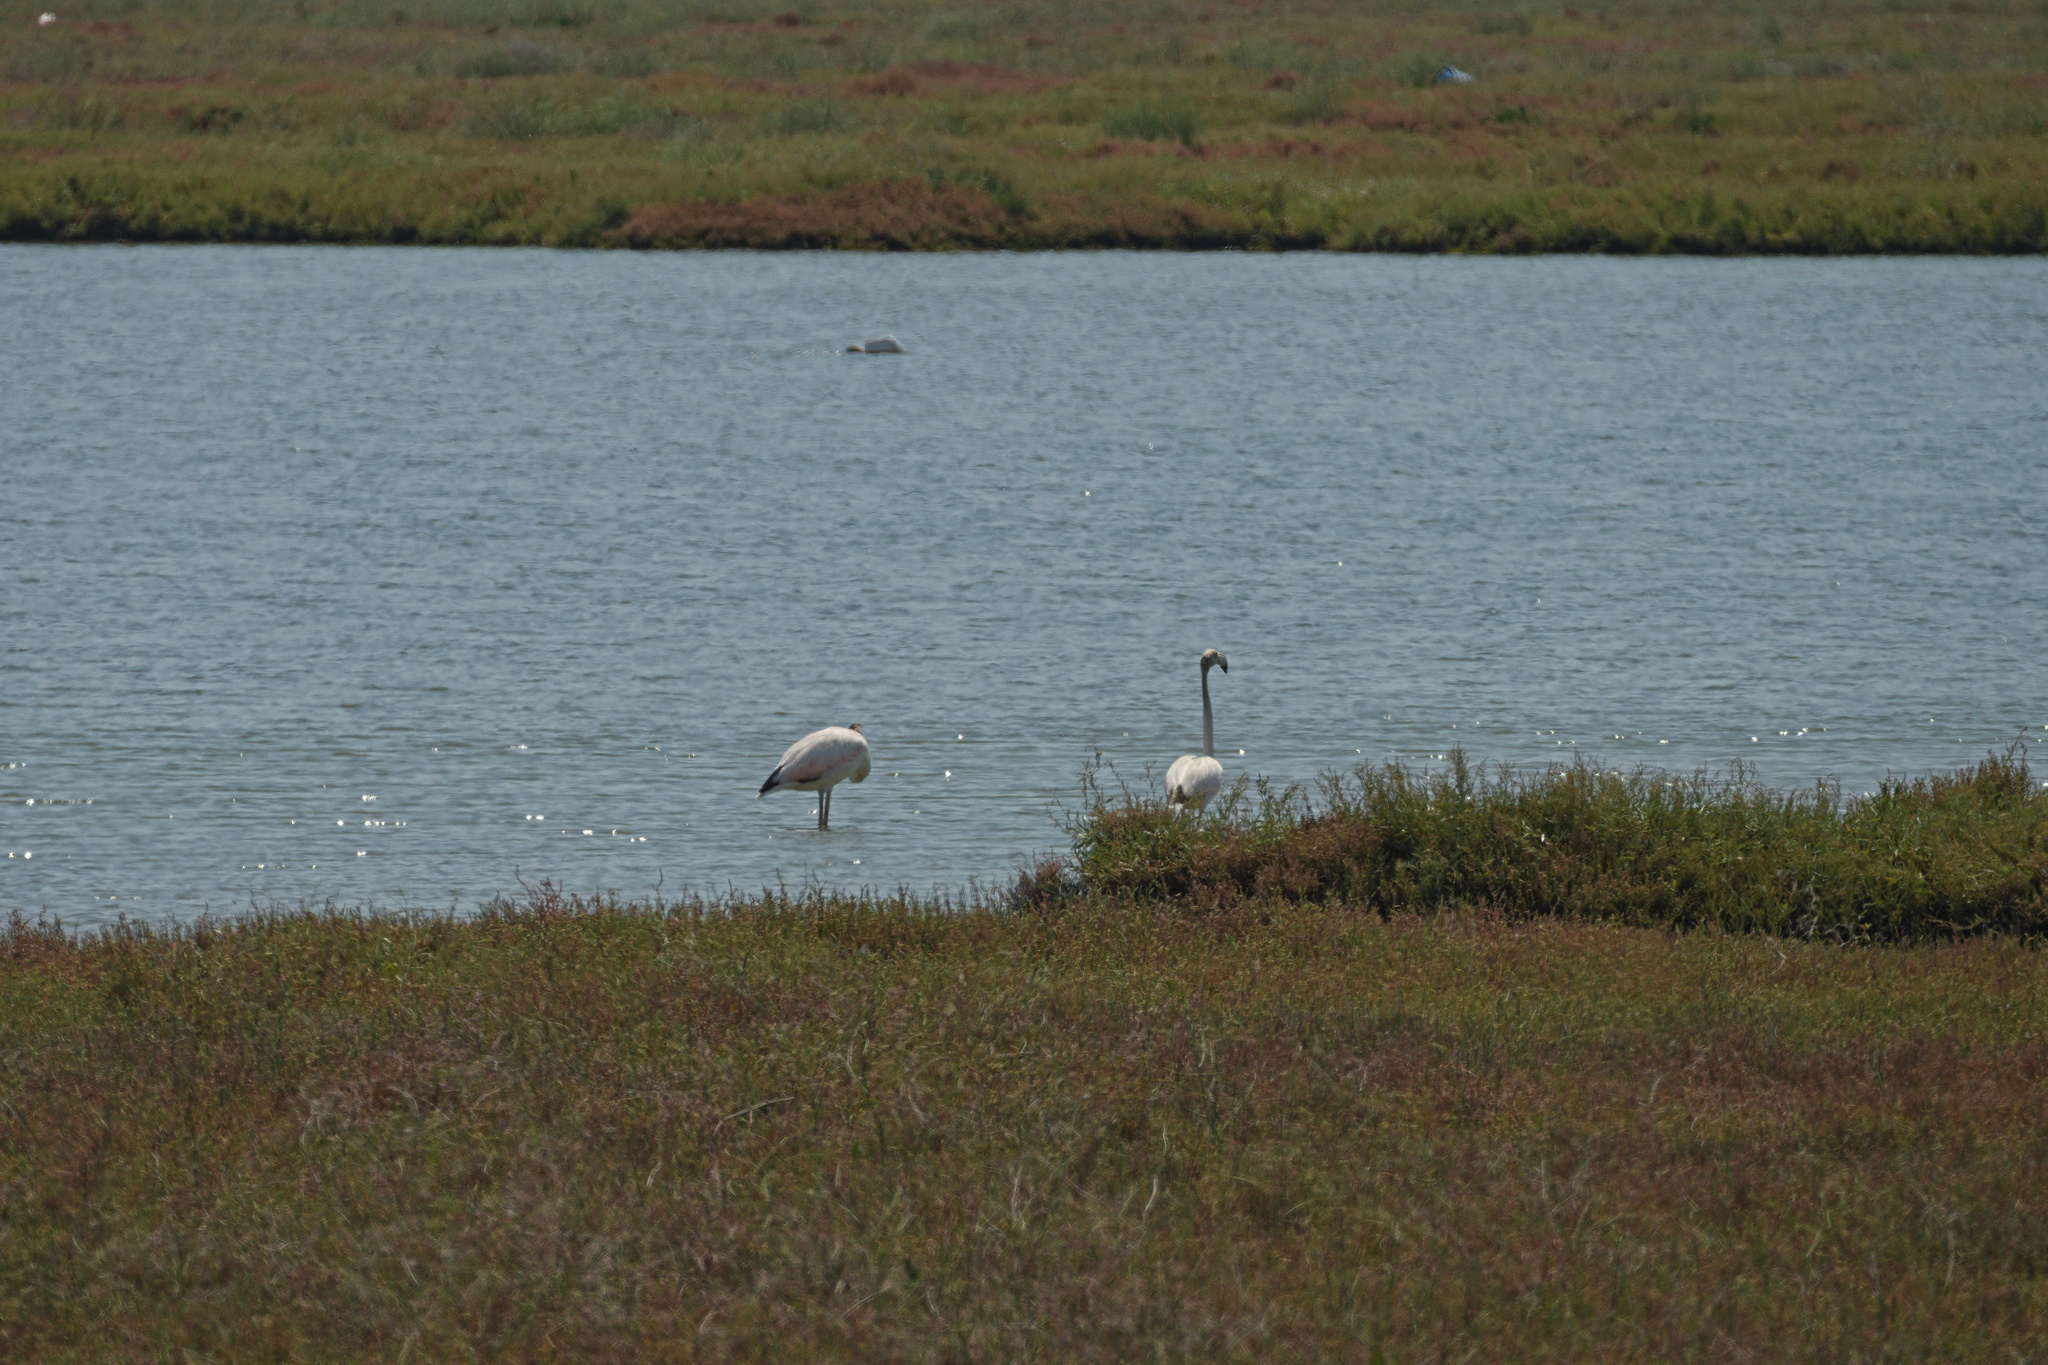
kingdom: Animalia
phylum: Chordata
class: Aves
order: Phoenicopteriformes
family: Phoenicopteridae
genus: Phoenicopterus
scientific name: Phoenicopterus roseus
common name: Greater flamingo
